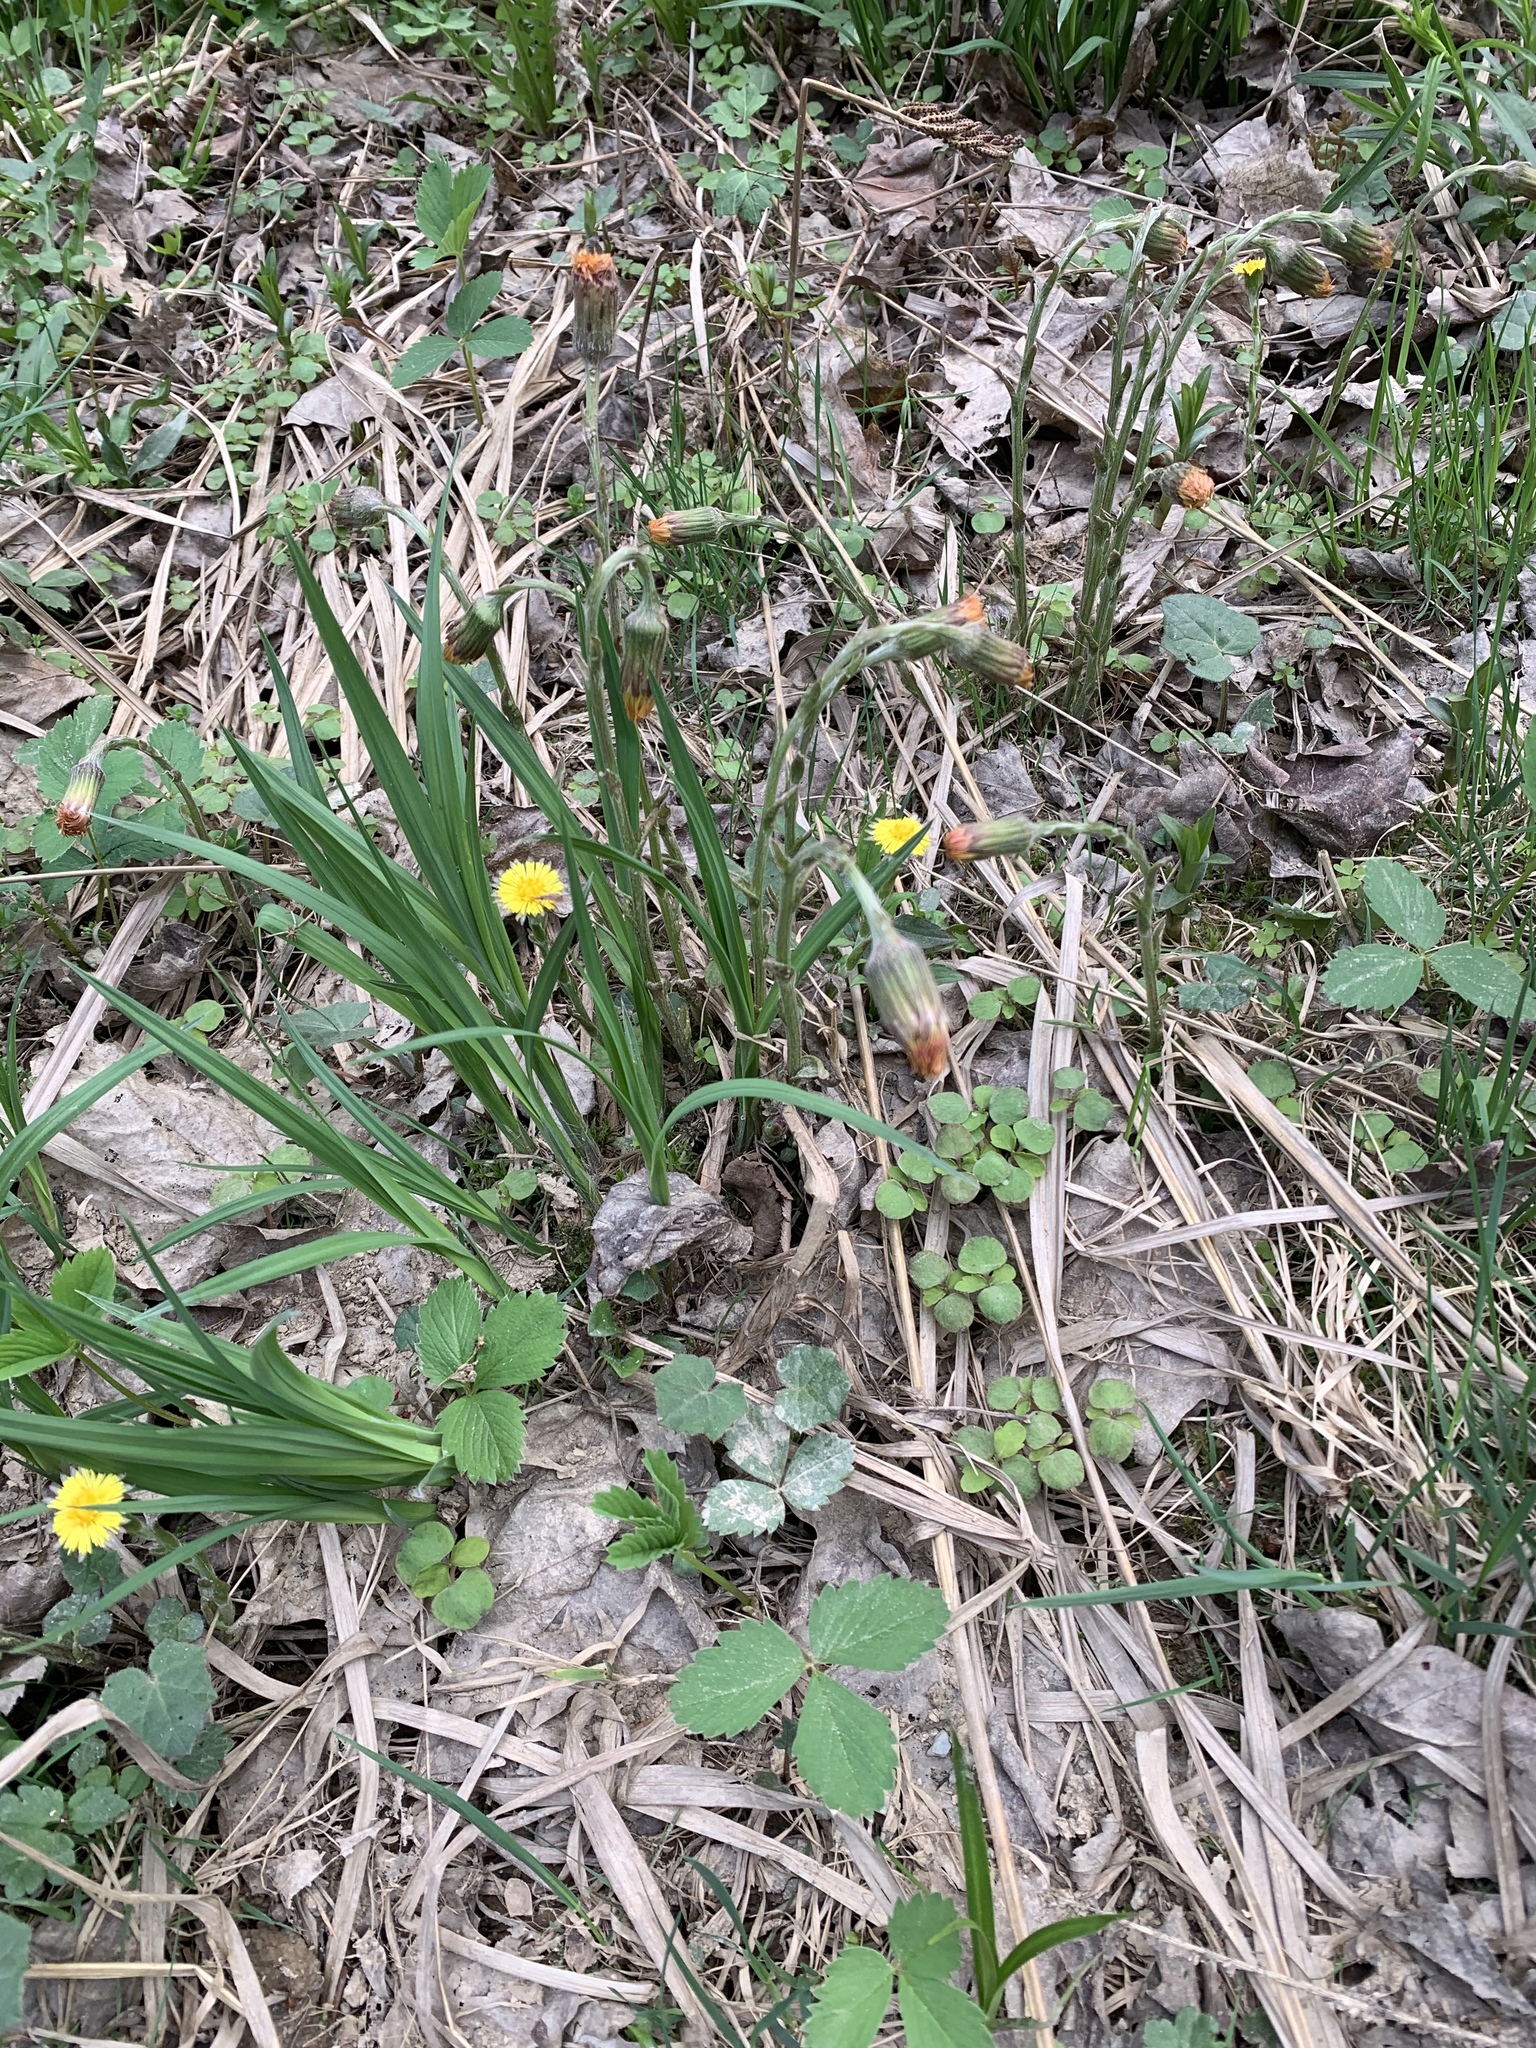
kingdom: Plantae
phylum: Tracheophyta
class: Magnoliopsida
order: Asterales
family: Asteraceae
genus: Tussilago
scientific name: Tussilago farfara
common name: Coltsfoot
